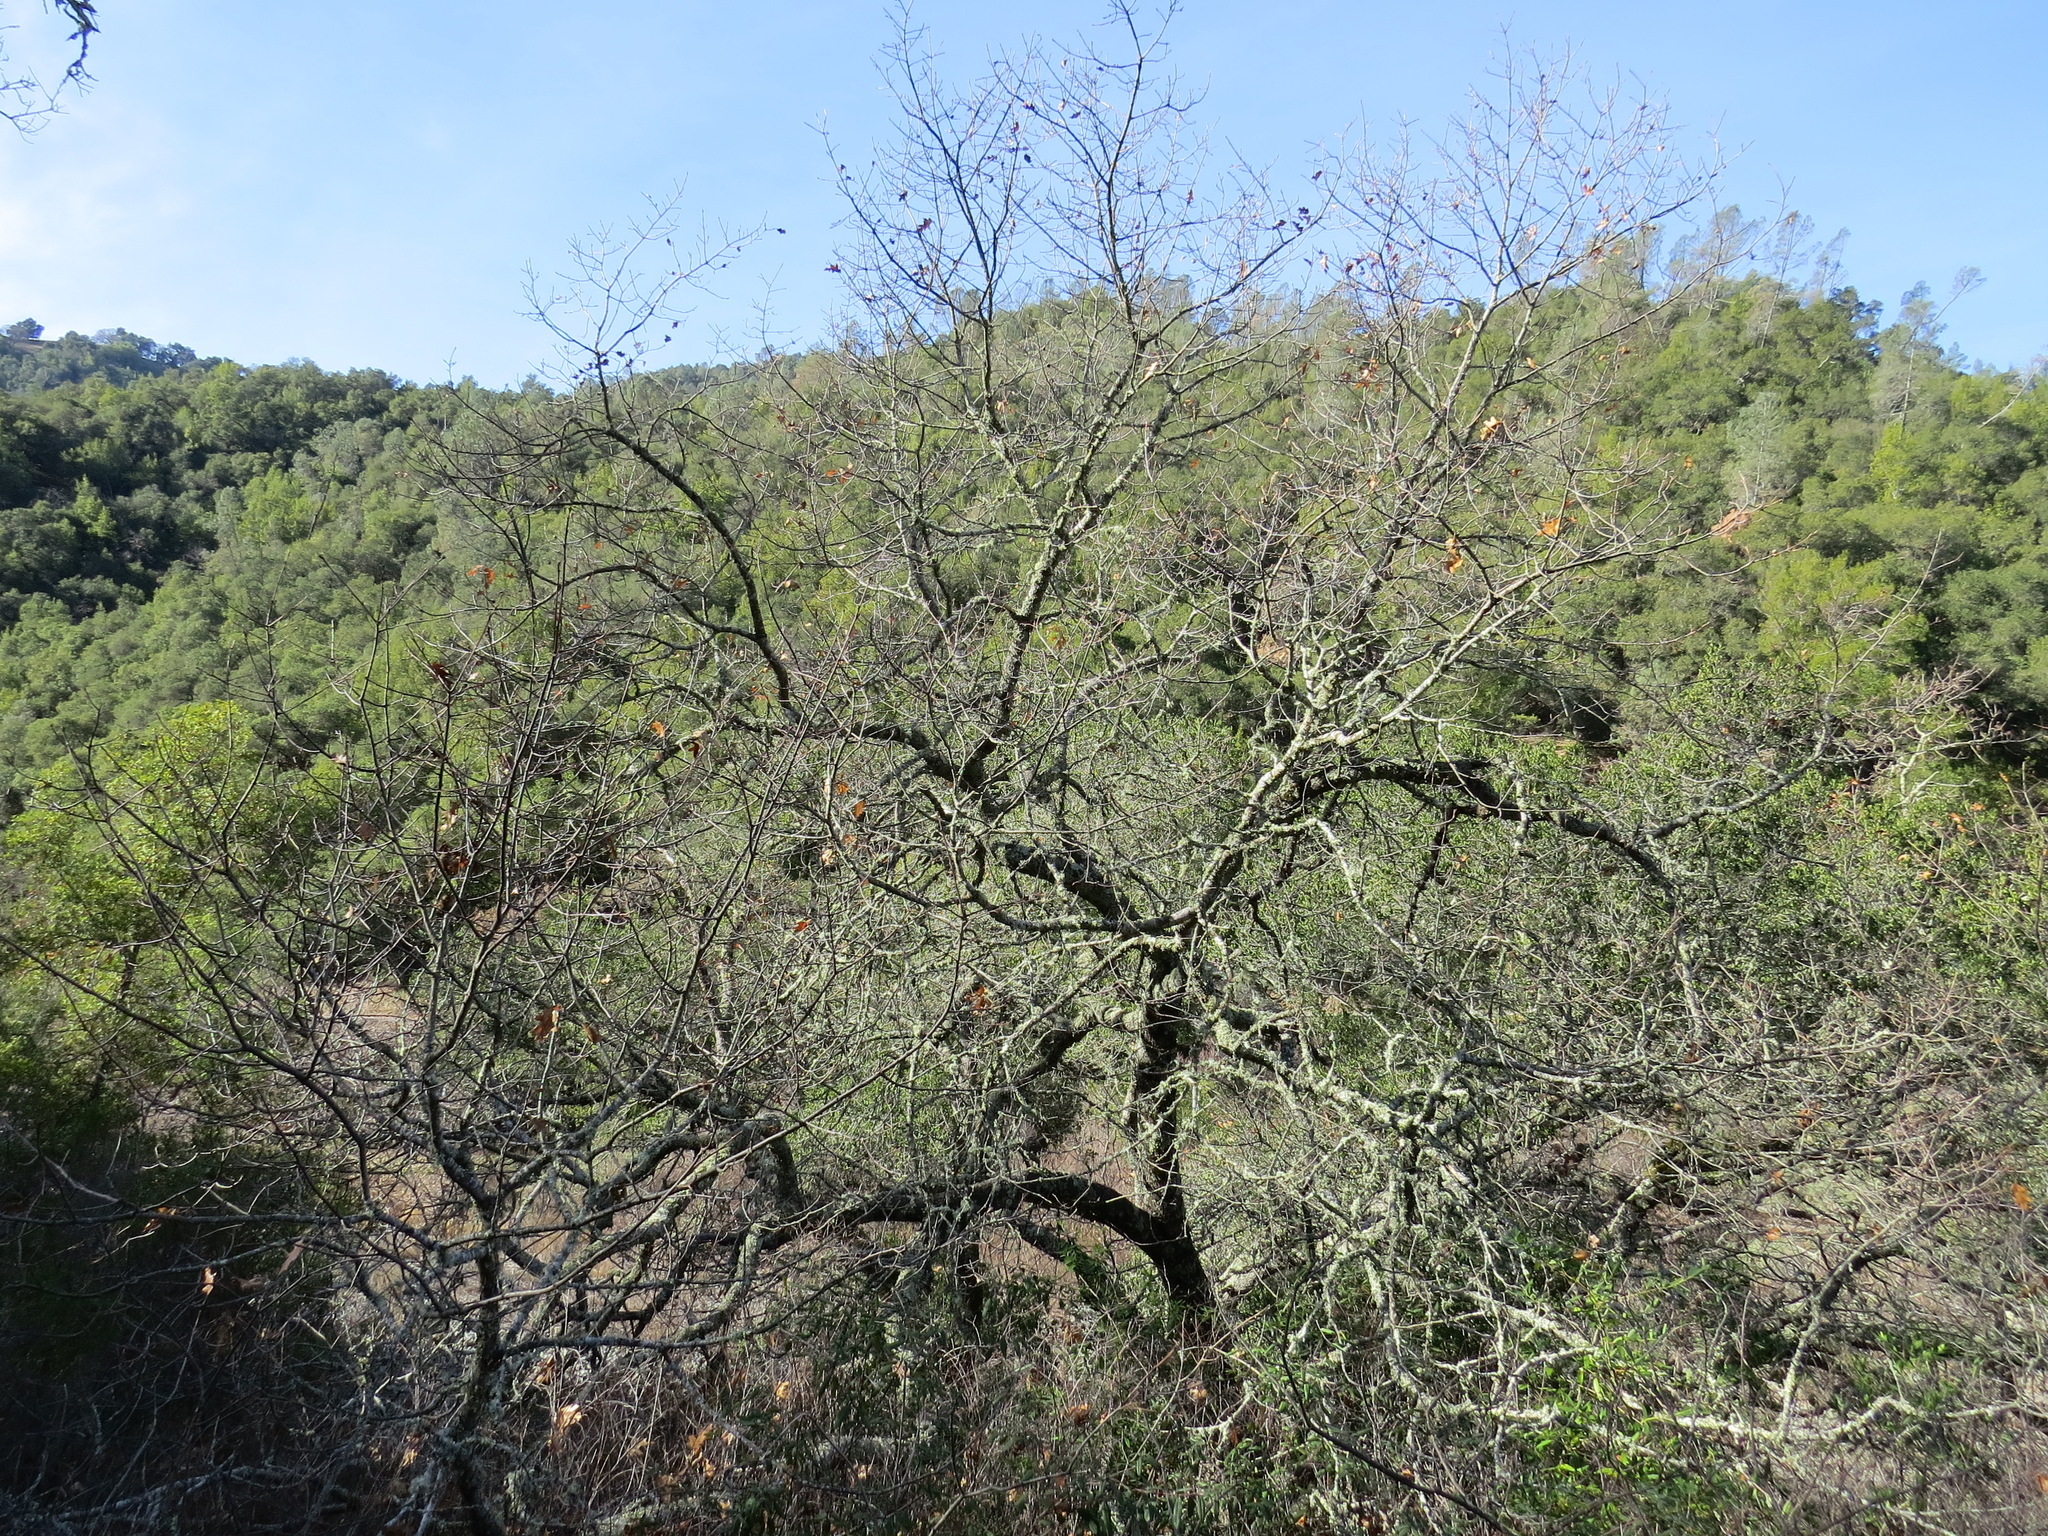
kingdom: Plantae
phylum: Tracheophyta
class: Magnoliopsida
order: Fagales
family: Fagaceae
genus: Quercus
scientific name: Quercus kelloggii
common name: California black oak
